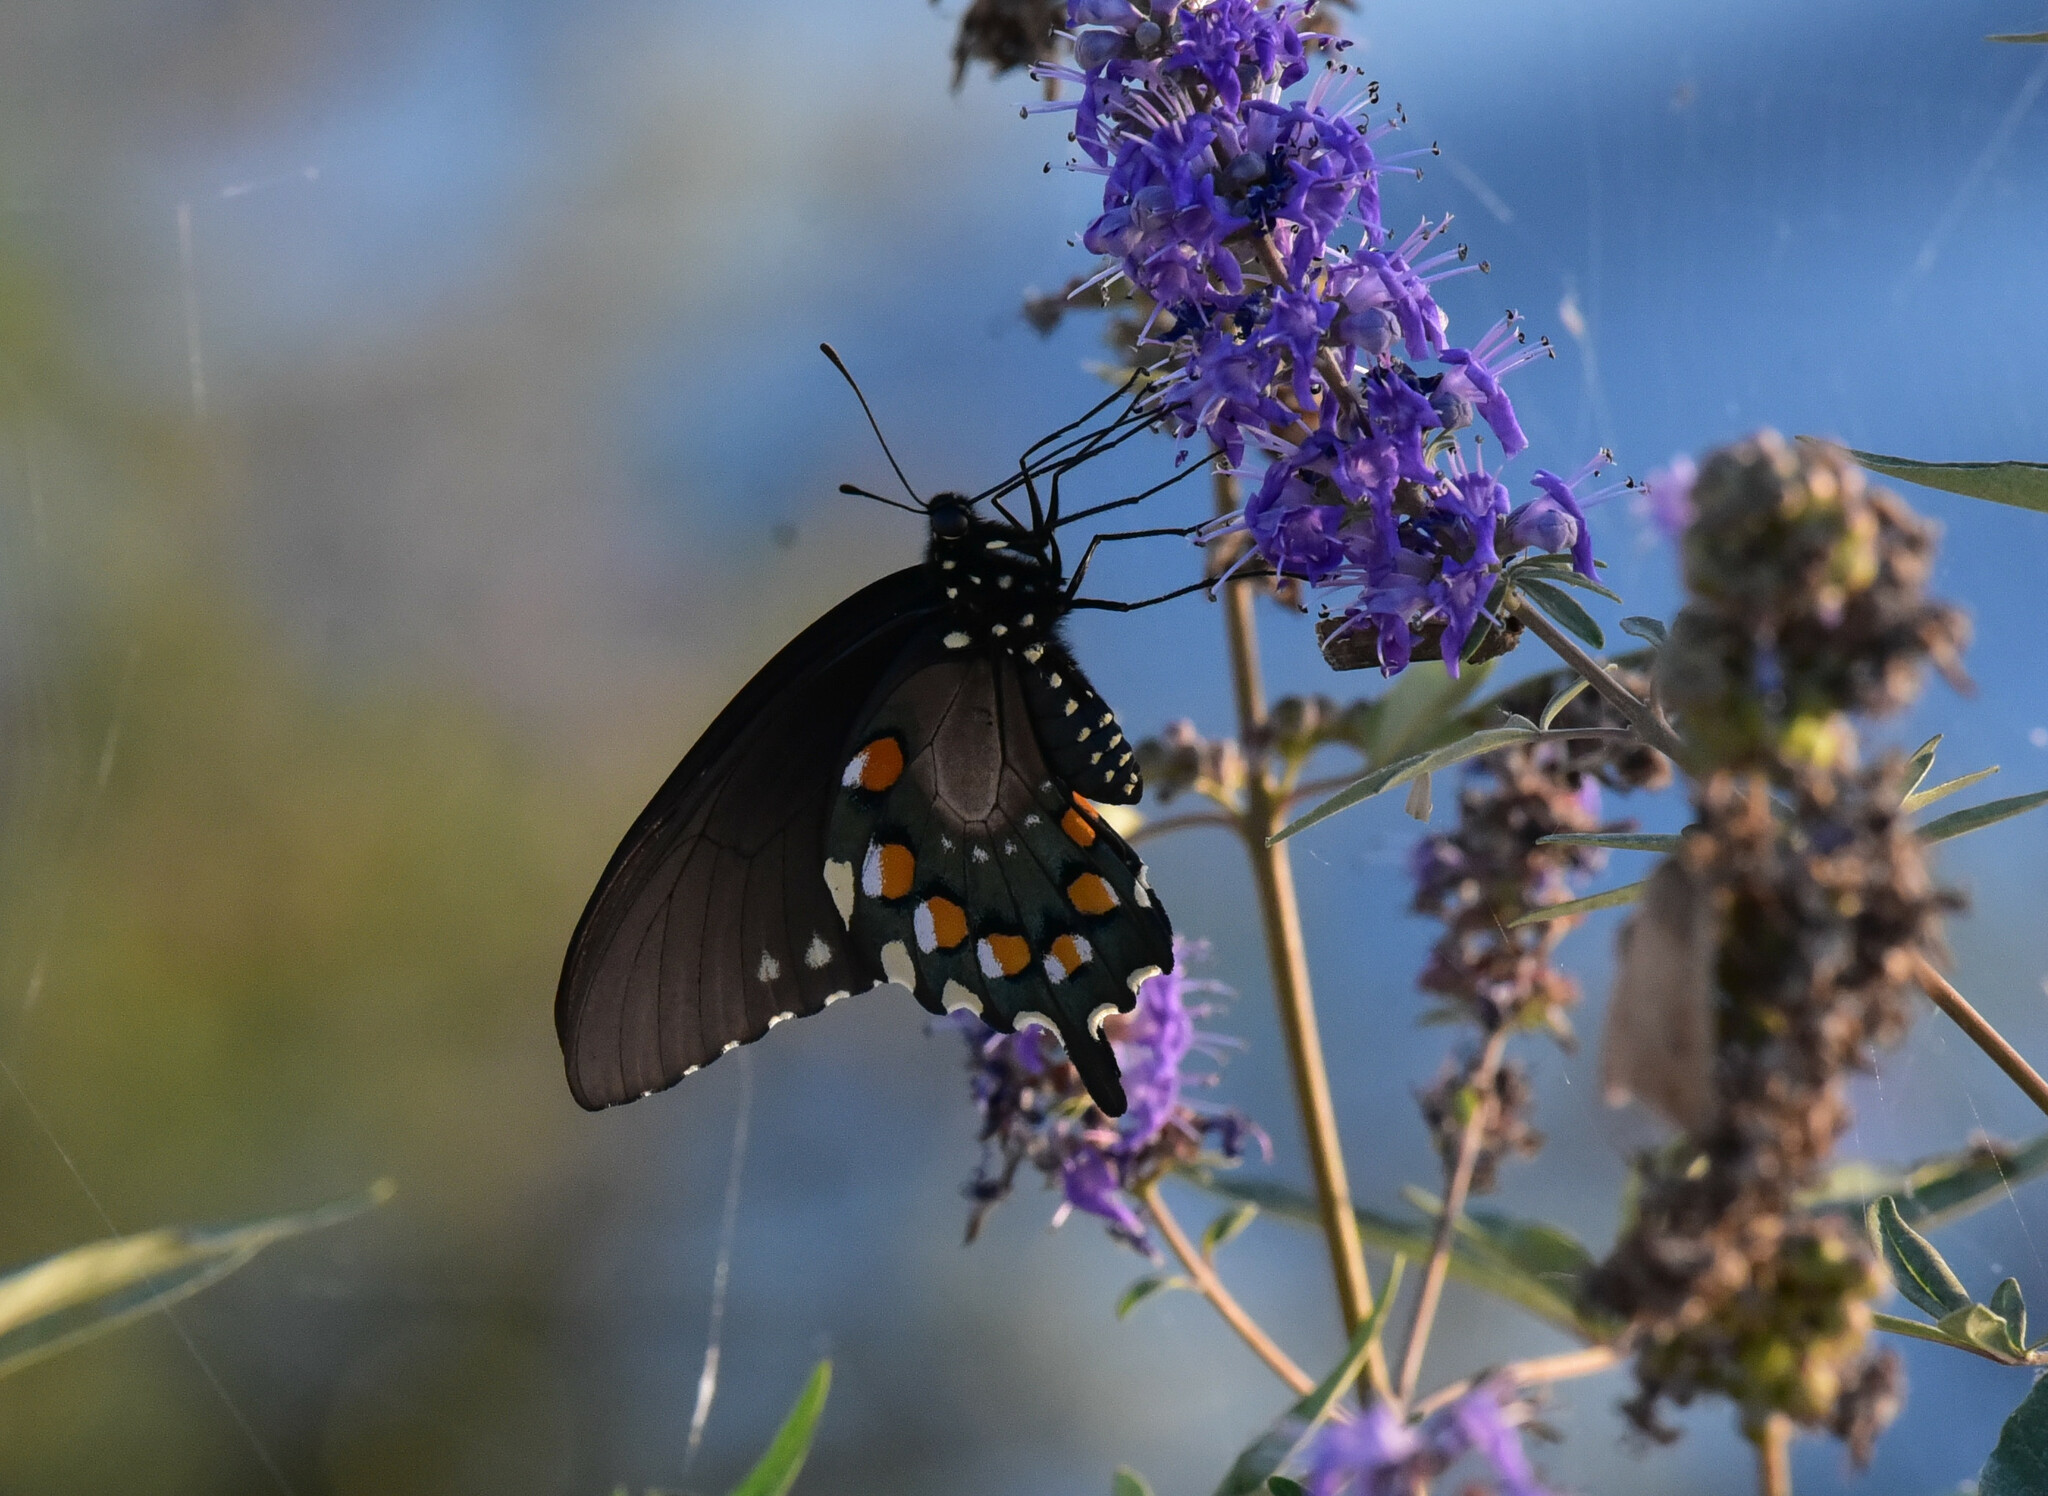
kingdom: Animalia
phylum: Arthropoda
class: Insecta
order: Lepidoptera
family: Papilionidae
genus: Battus
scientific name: Battus philenor
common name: Pipevine swallowtail
